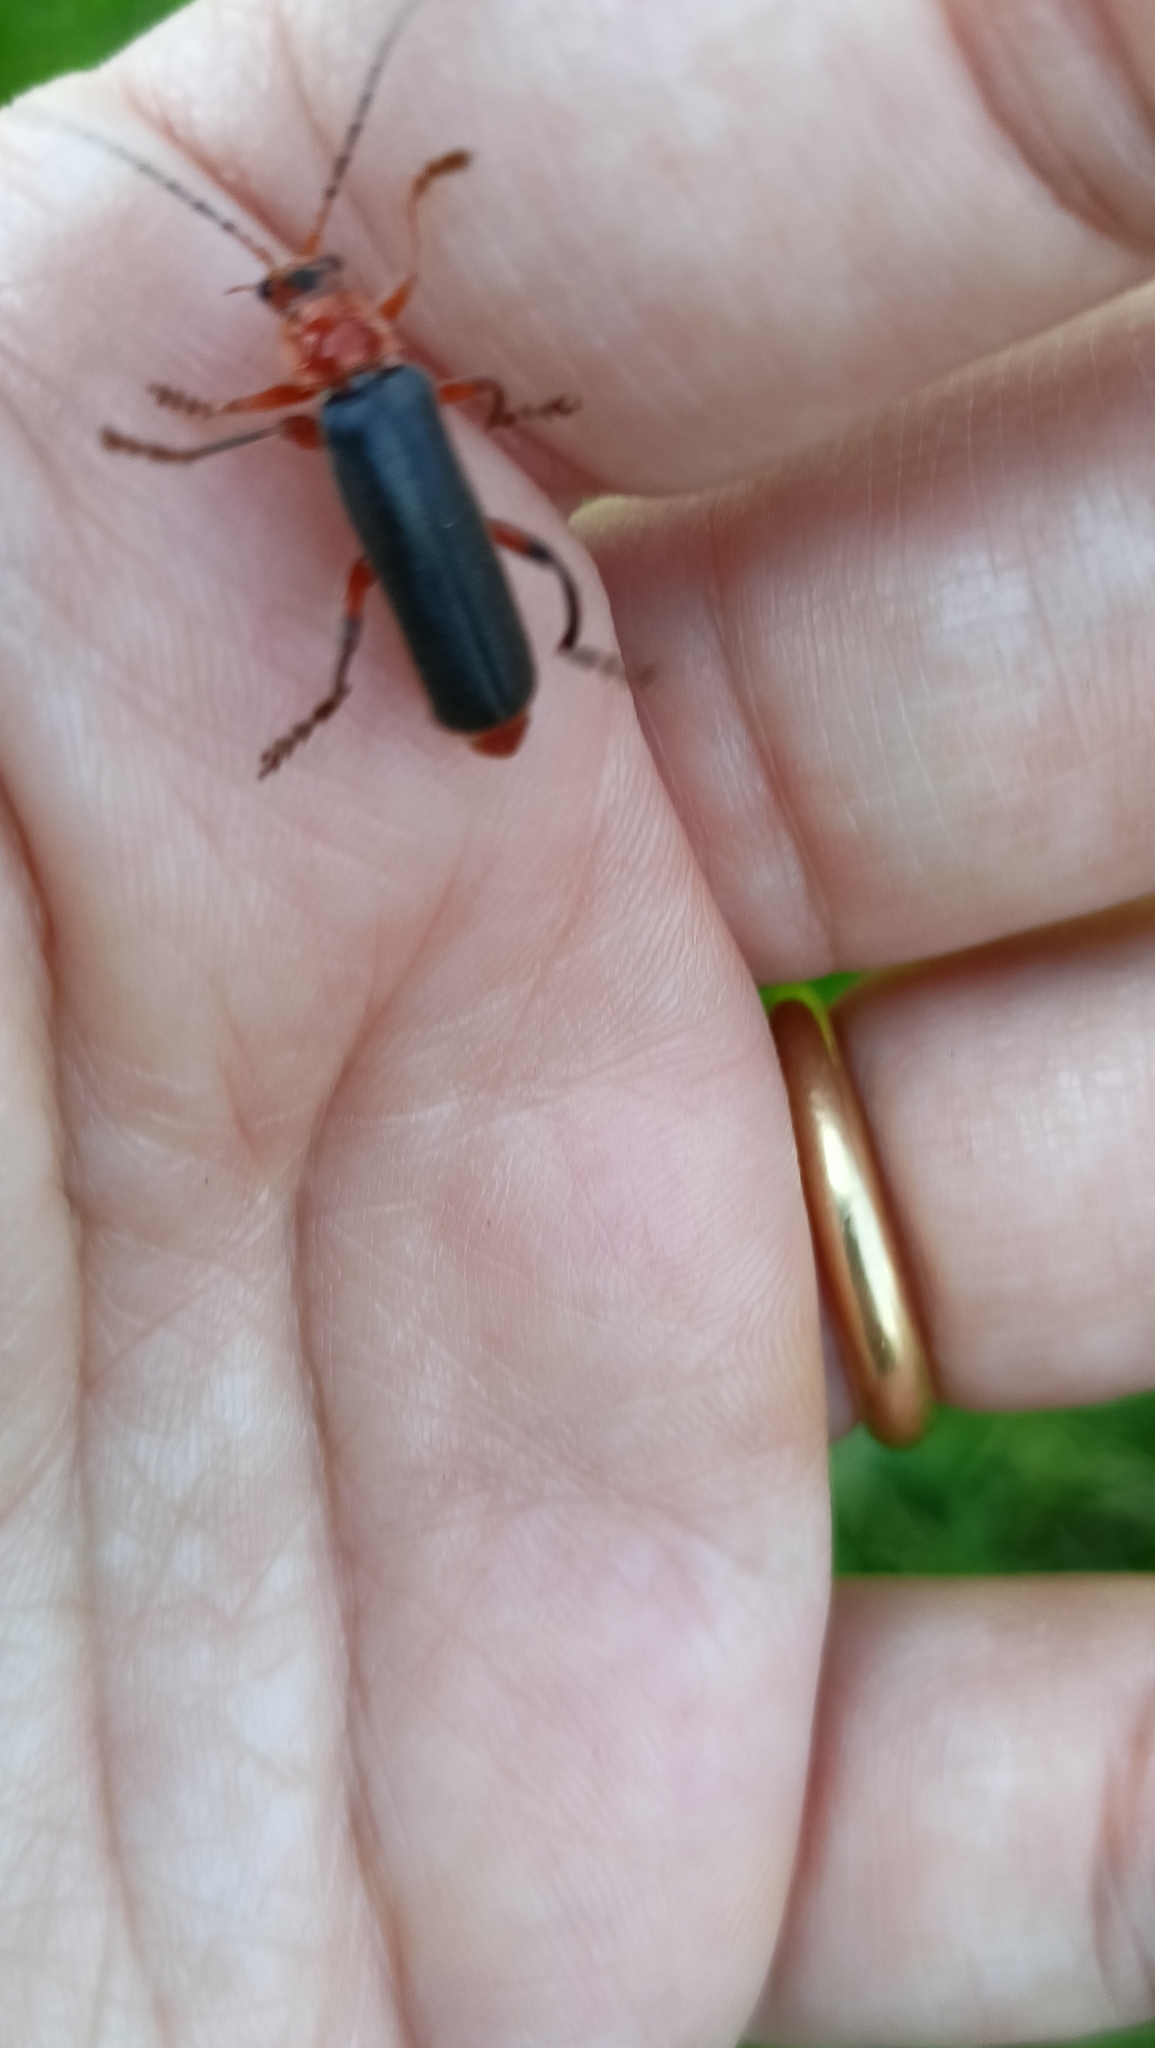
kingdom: Animalia
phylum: Arthropoda
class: Insecta
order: Coleoptera
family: Cantharidae
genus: Cantharis
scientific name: Cantharis livida
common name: Livid soldier beetle
